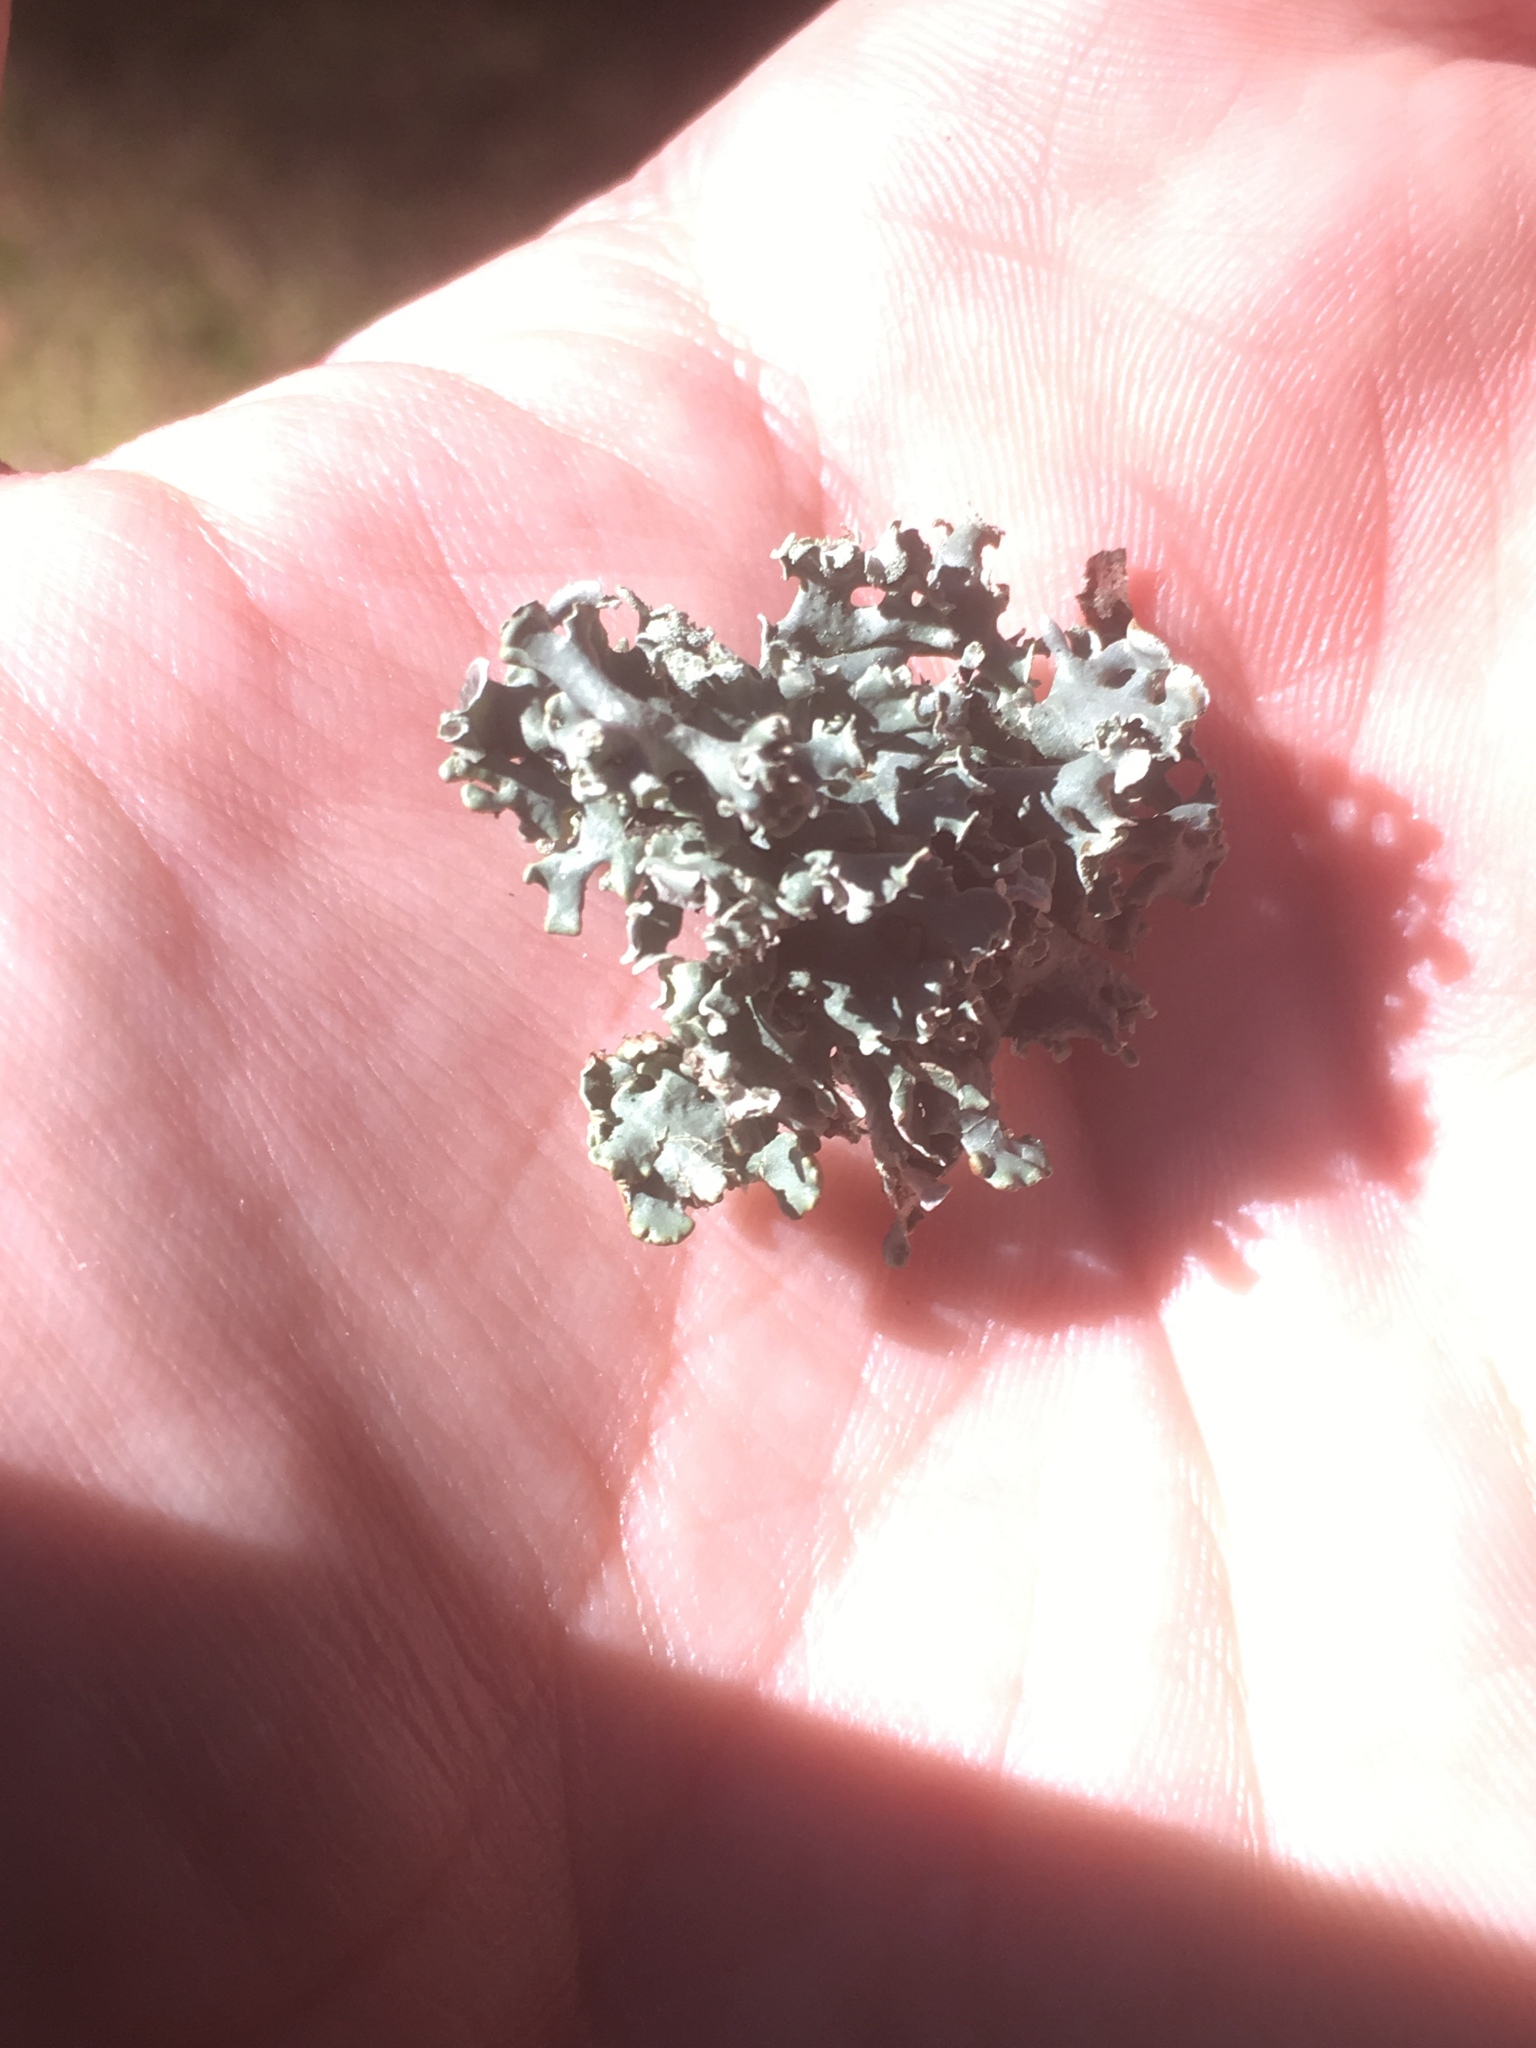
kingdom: Fungi
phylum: Ascomycota
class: Lecanoromycetes
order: Lecanorales
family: Parmeliaceae
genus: Hypogymnia
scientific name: Hypogymnia physodes
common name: Dark crottle
